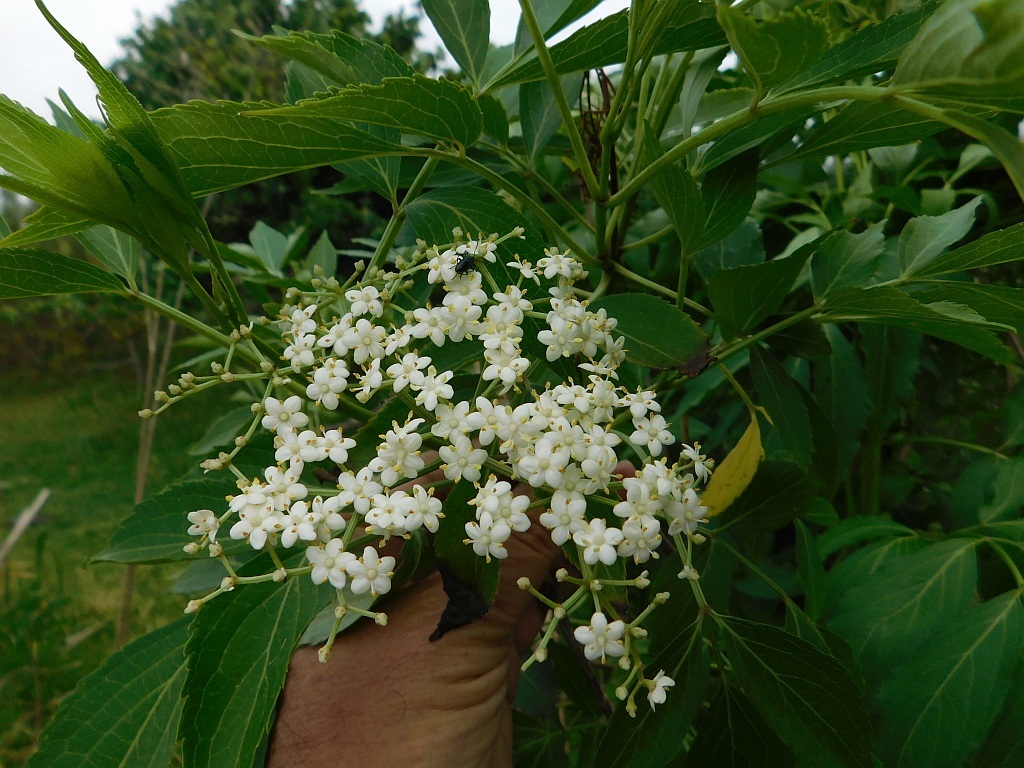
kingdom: Plantae
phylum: Tracheophyta
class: Magnoliopsida
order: Dipsacales
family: Viburnaceae
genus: Sambucus
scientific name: Sambucus nigra
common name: Elder
